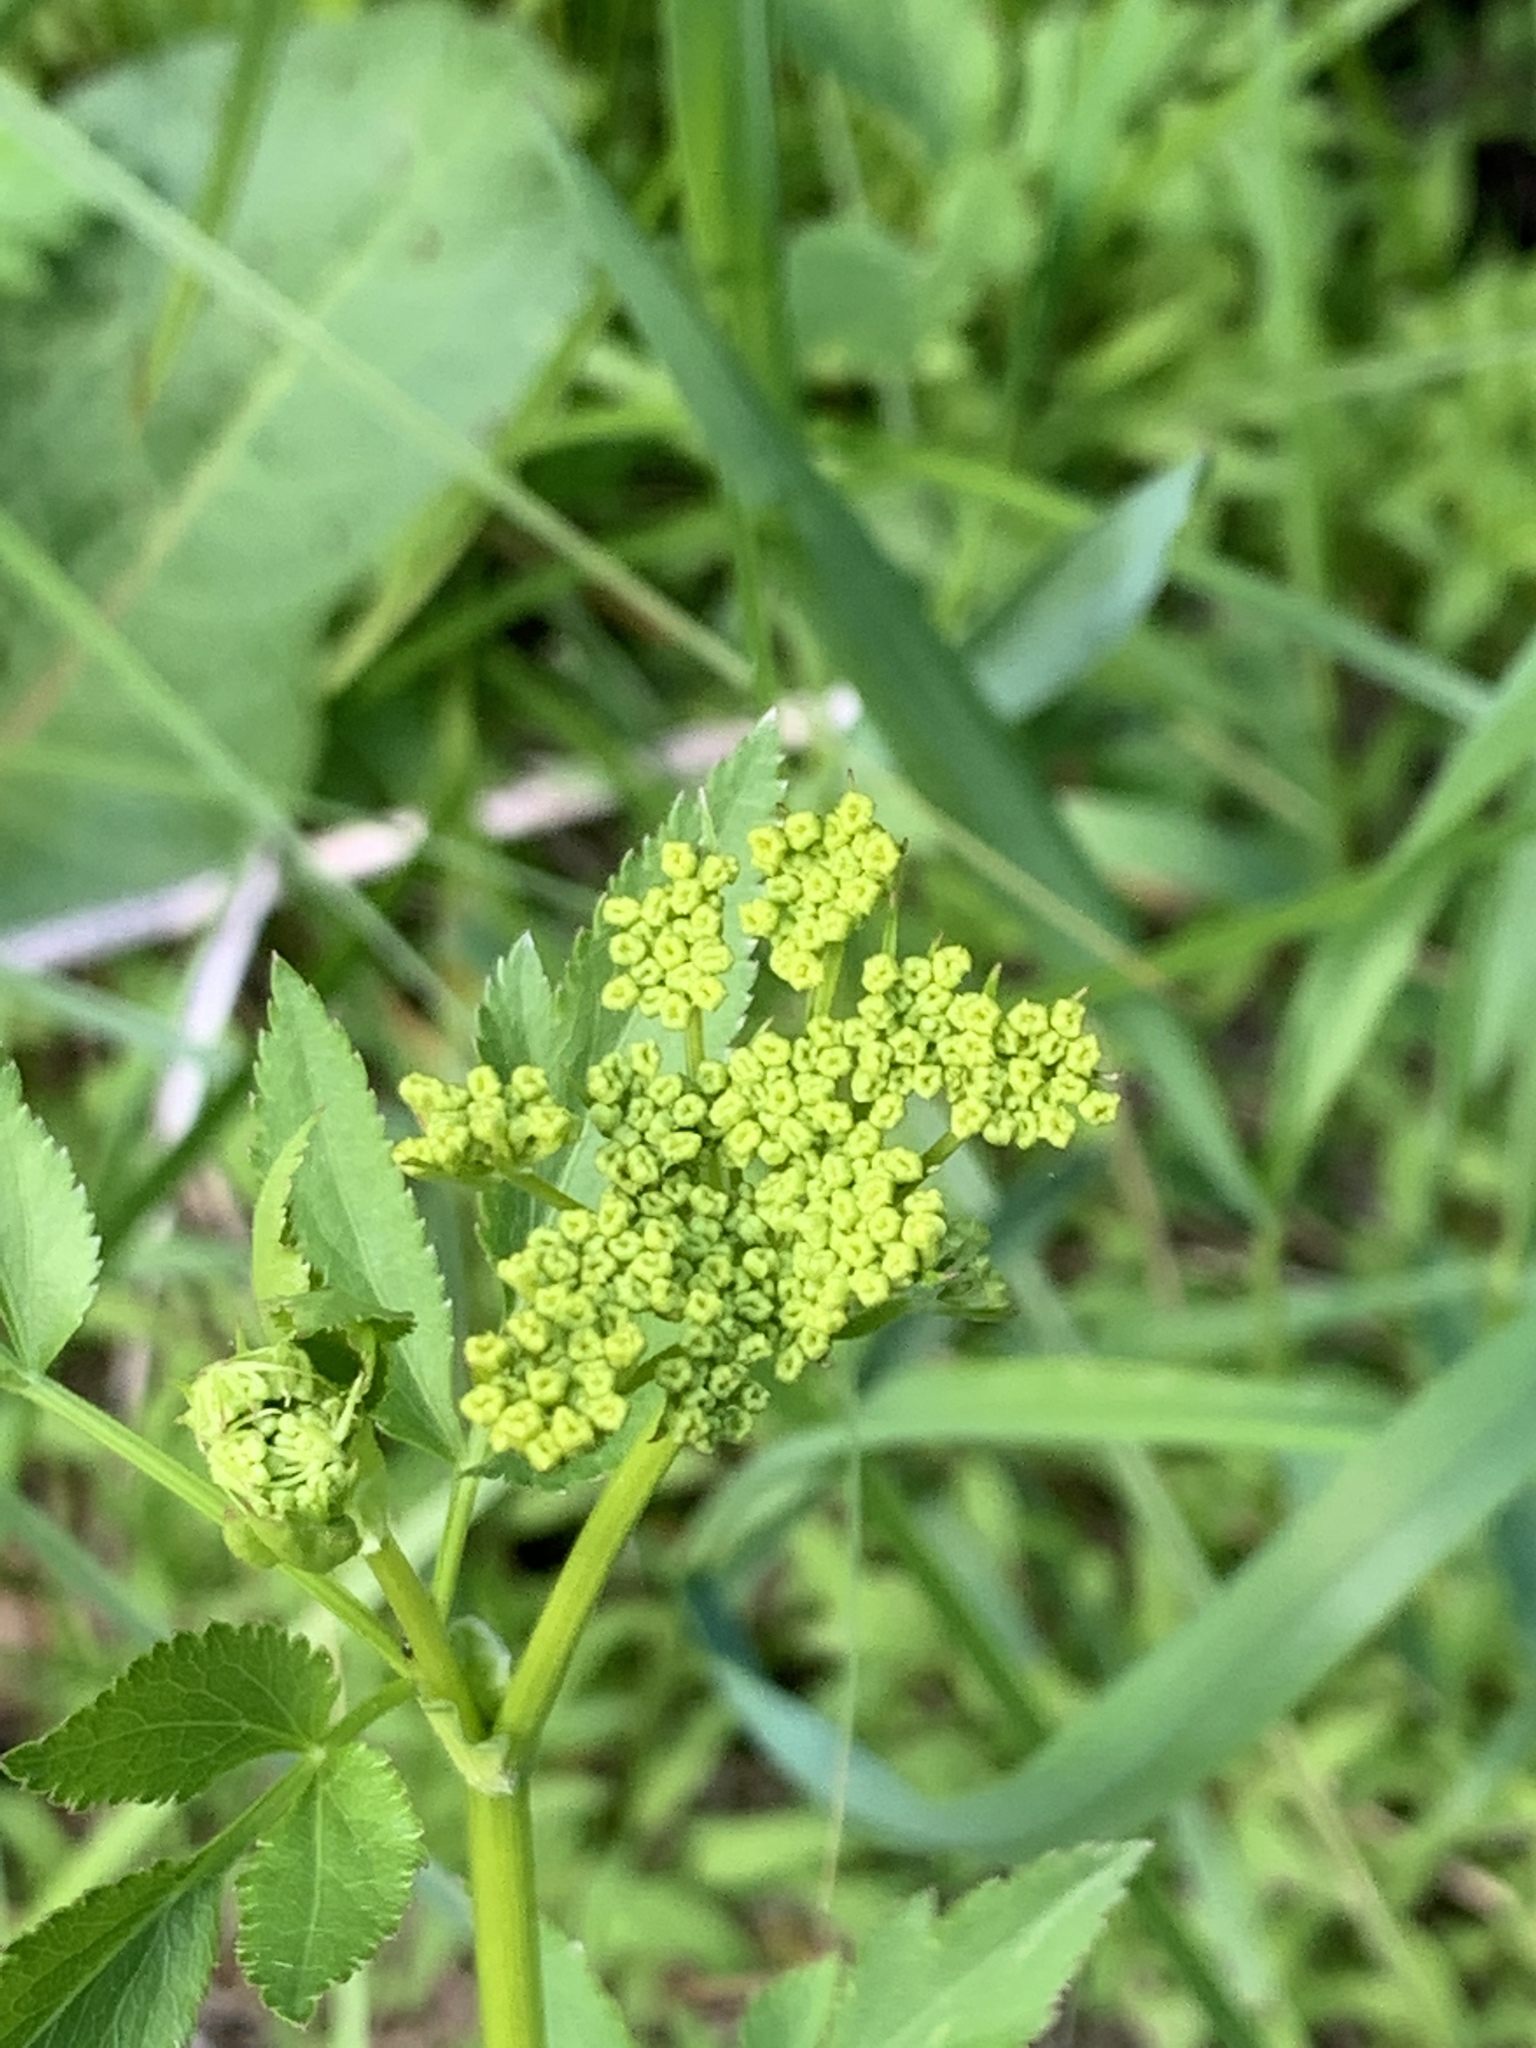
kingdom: Plantae
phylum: Tracheophyta
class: Magnoliopsida
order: Apiales
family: Apiaceae
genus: Zizia
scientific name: Zizia aurea
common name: Golden alexanders
